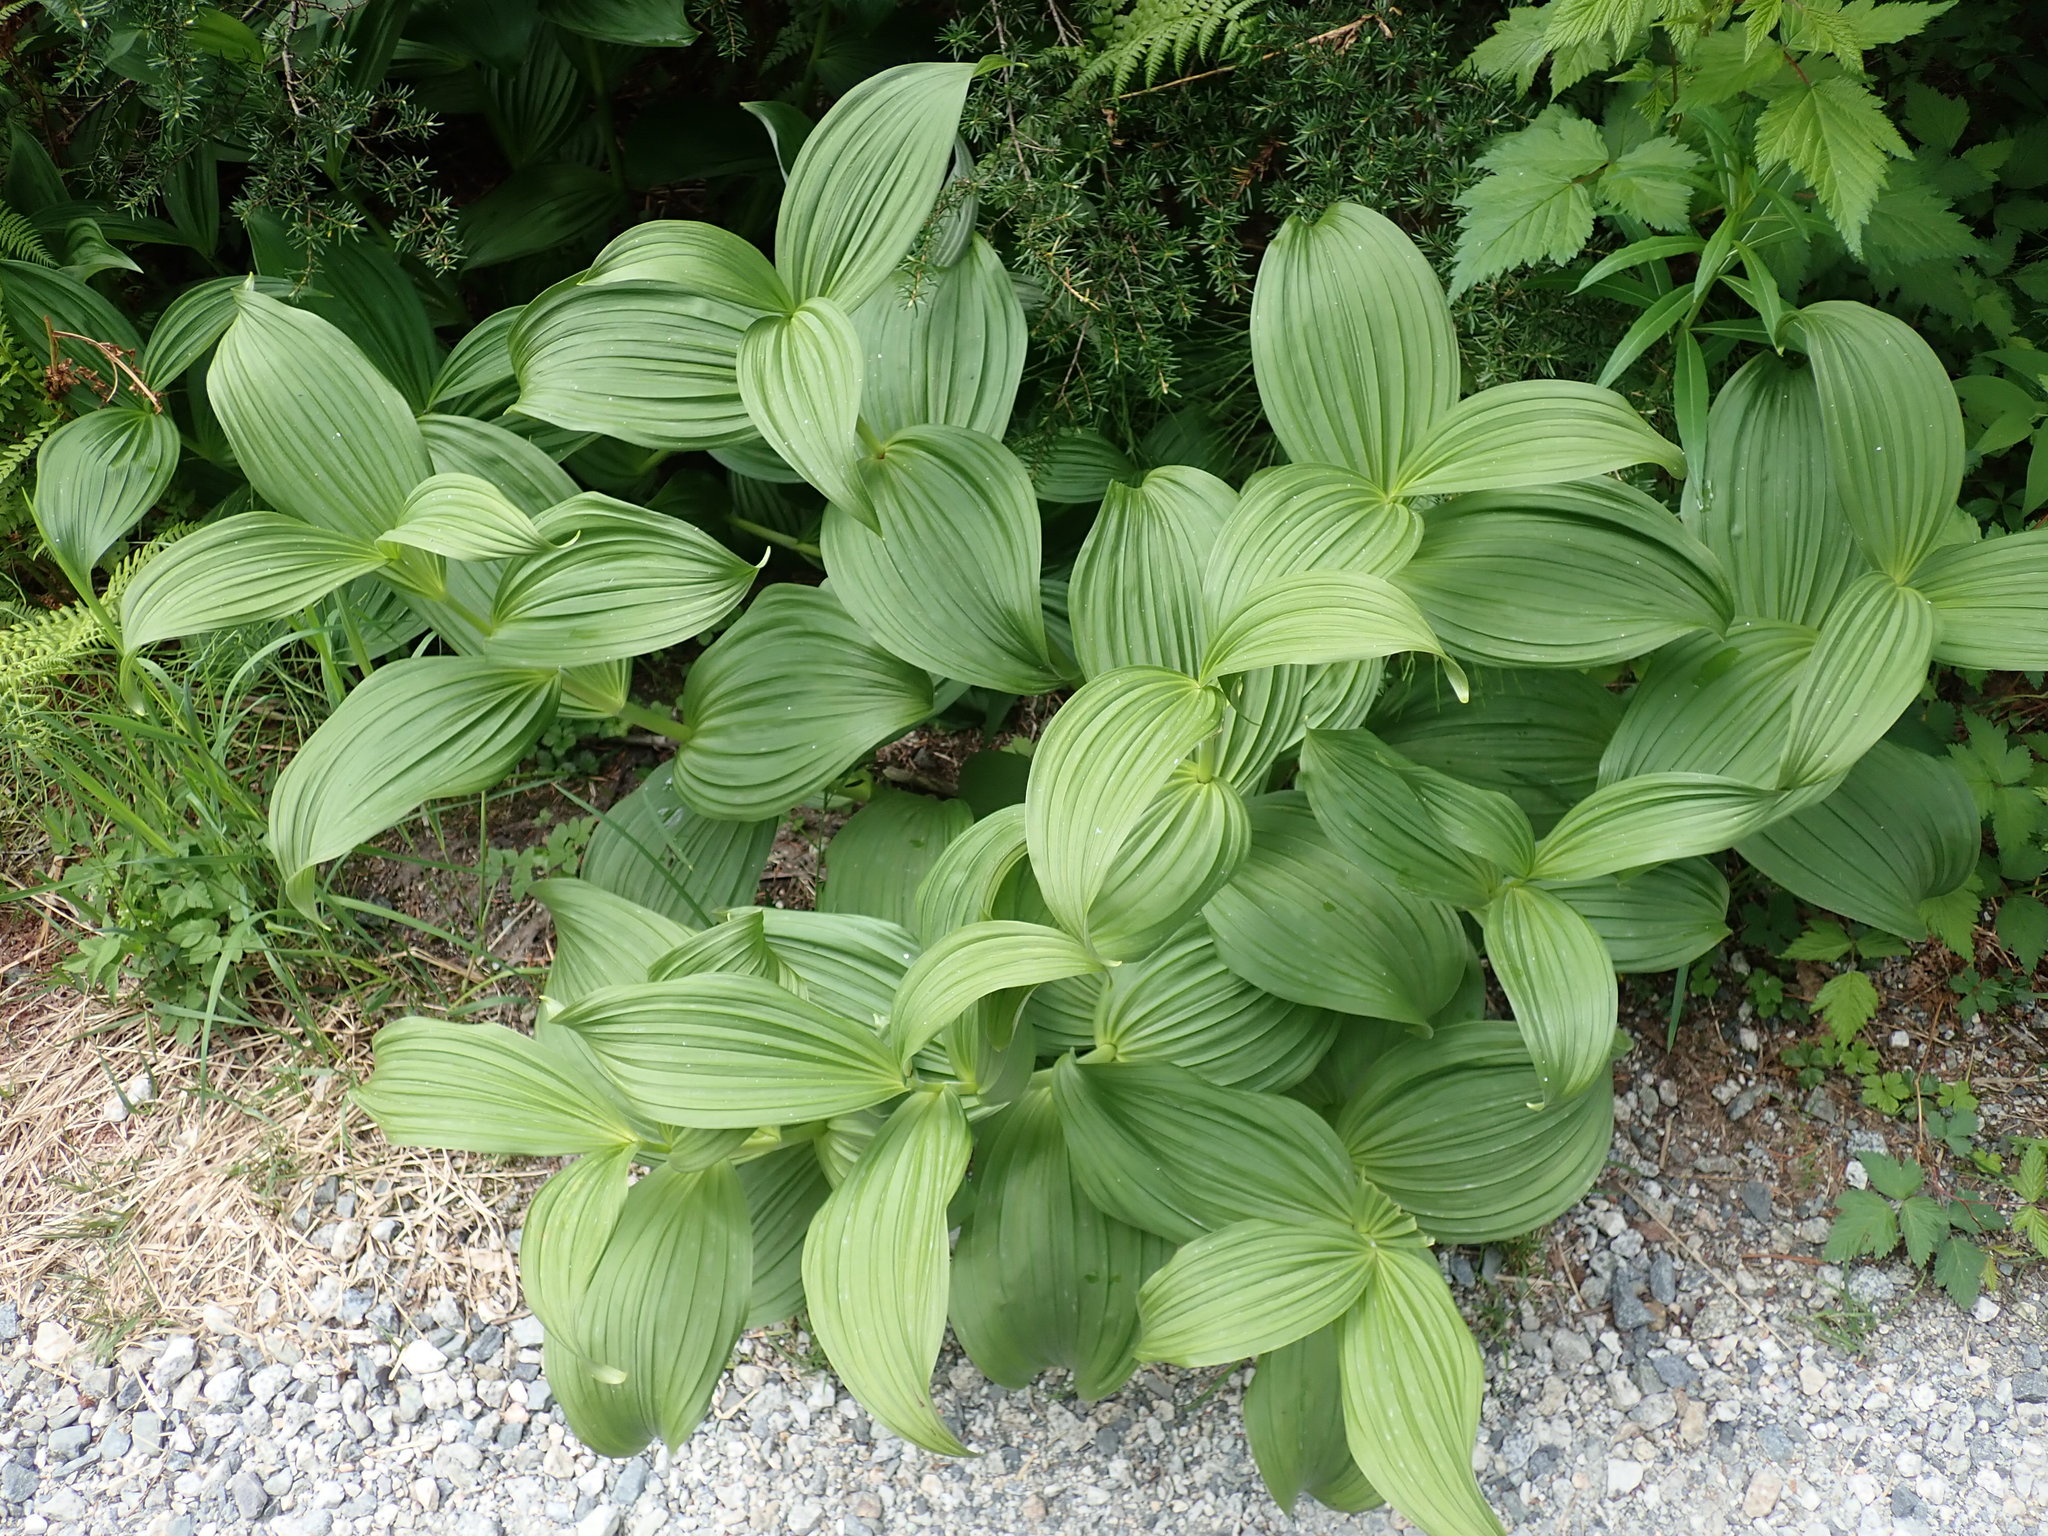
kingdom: Plantae
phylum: Tracheophyta
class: Liliopsida
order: Liliales
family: Melanthiaceae
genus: Veratrum
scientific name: Veratrum viride
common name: American false hellebore
